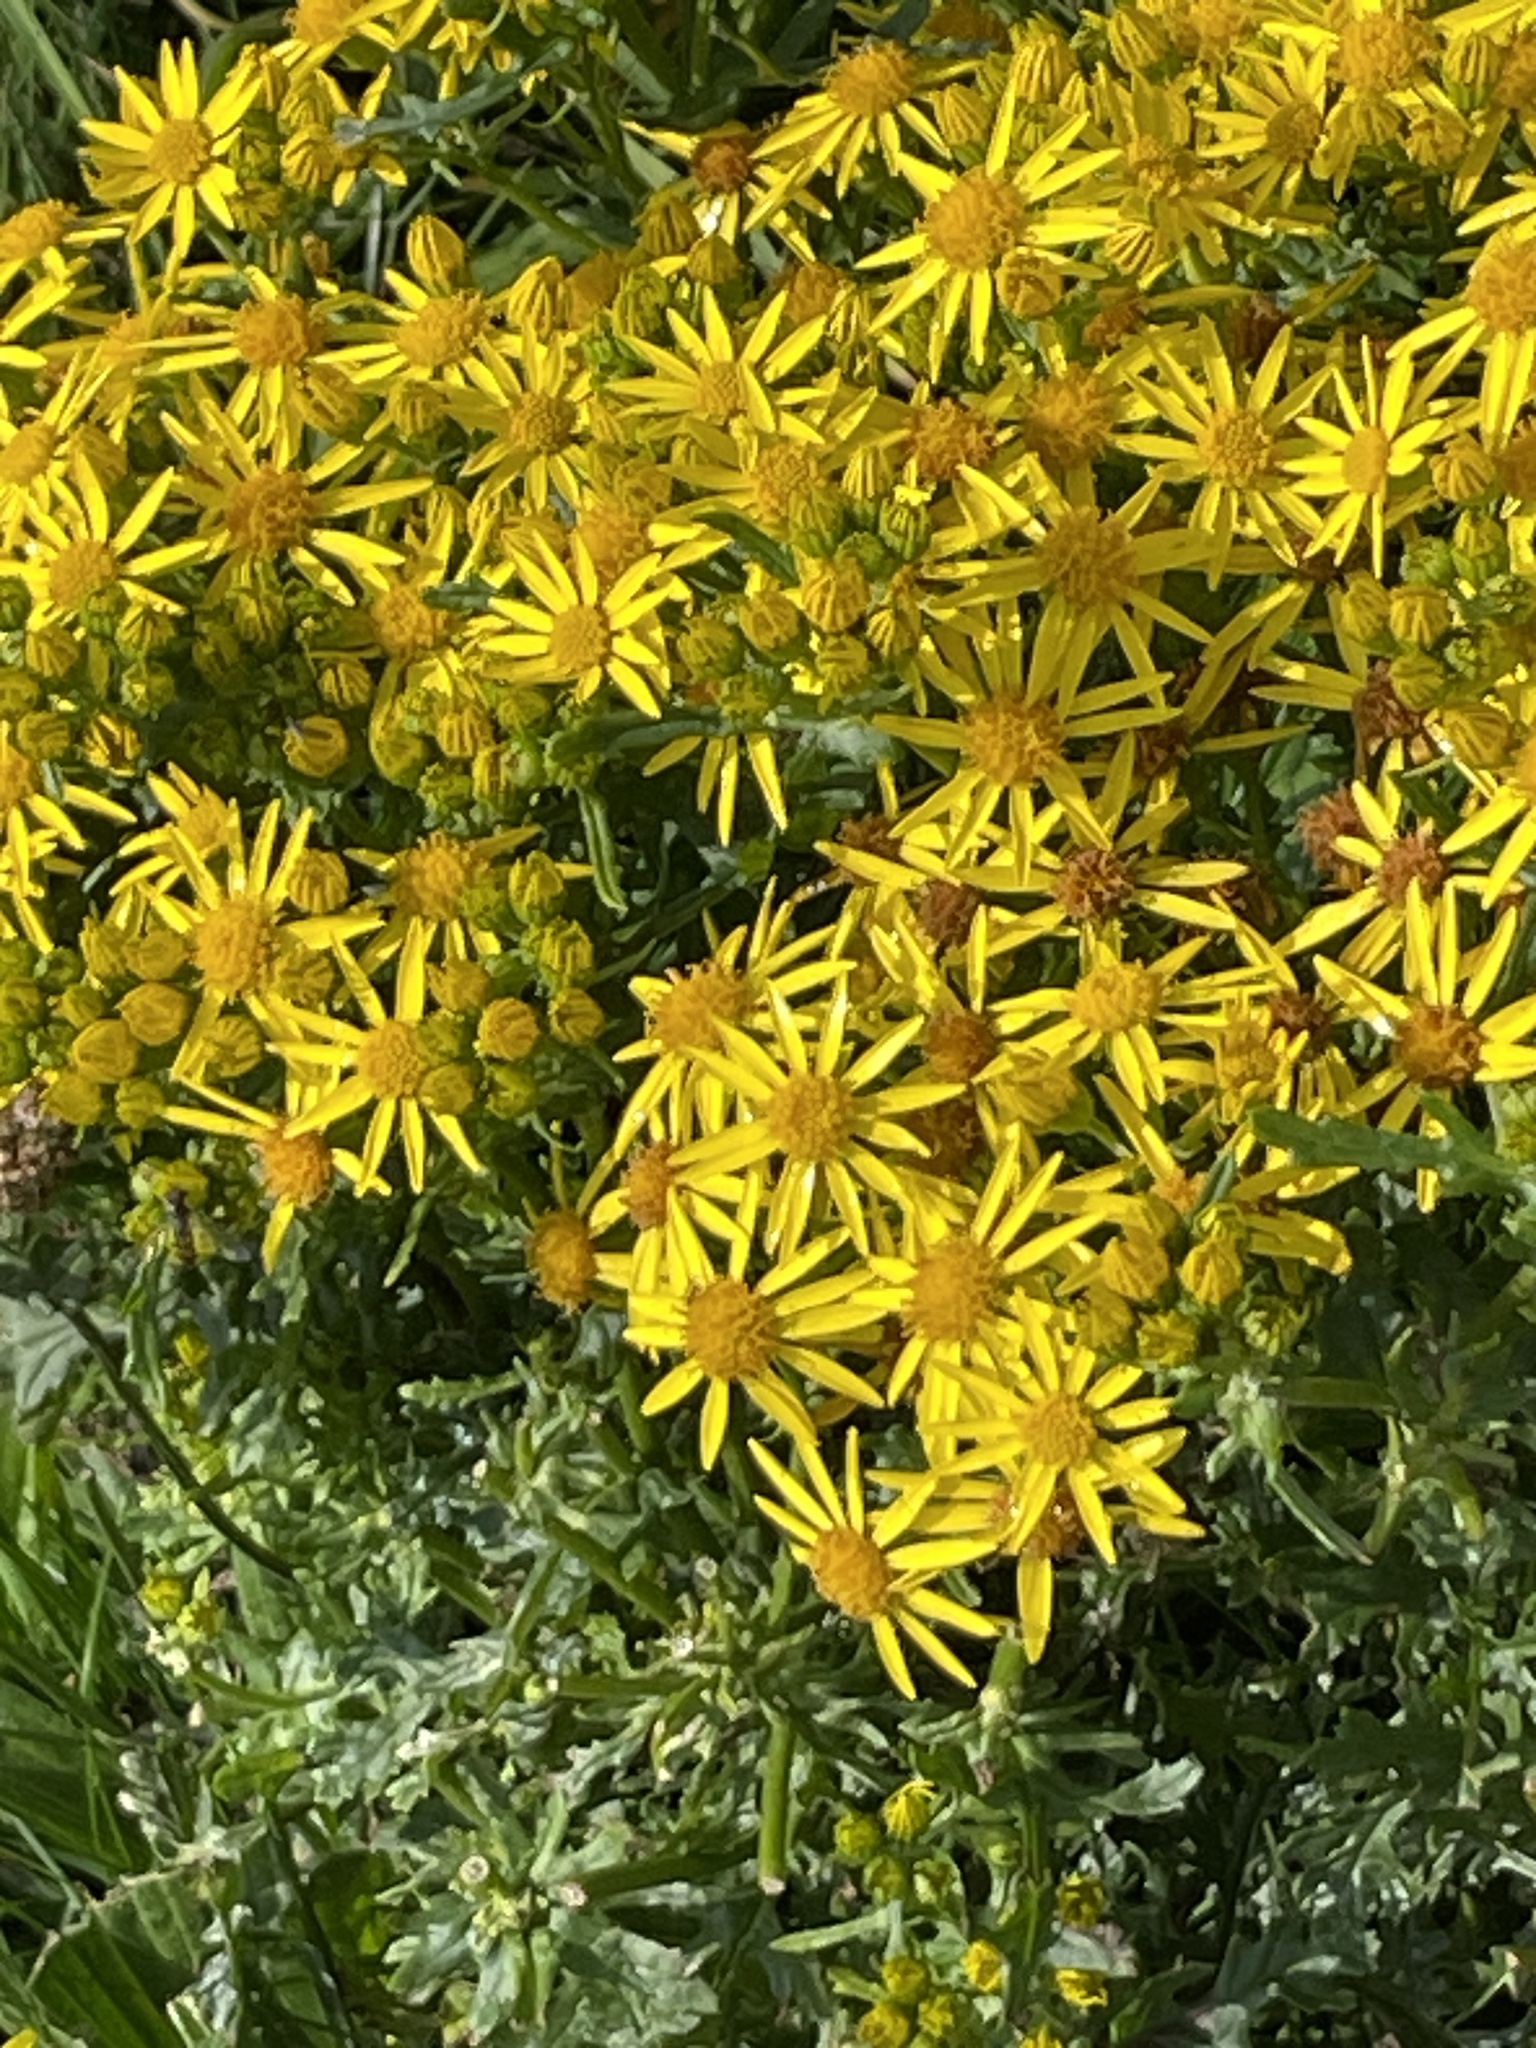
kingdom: Plantae
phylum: Tracheophyta
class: Magnoliopsida
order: Asterales
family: Asteraceae
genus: Jacobaea
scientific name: Jacobaea vulgaris
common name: Stinking willie
